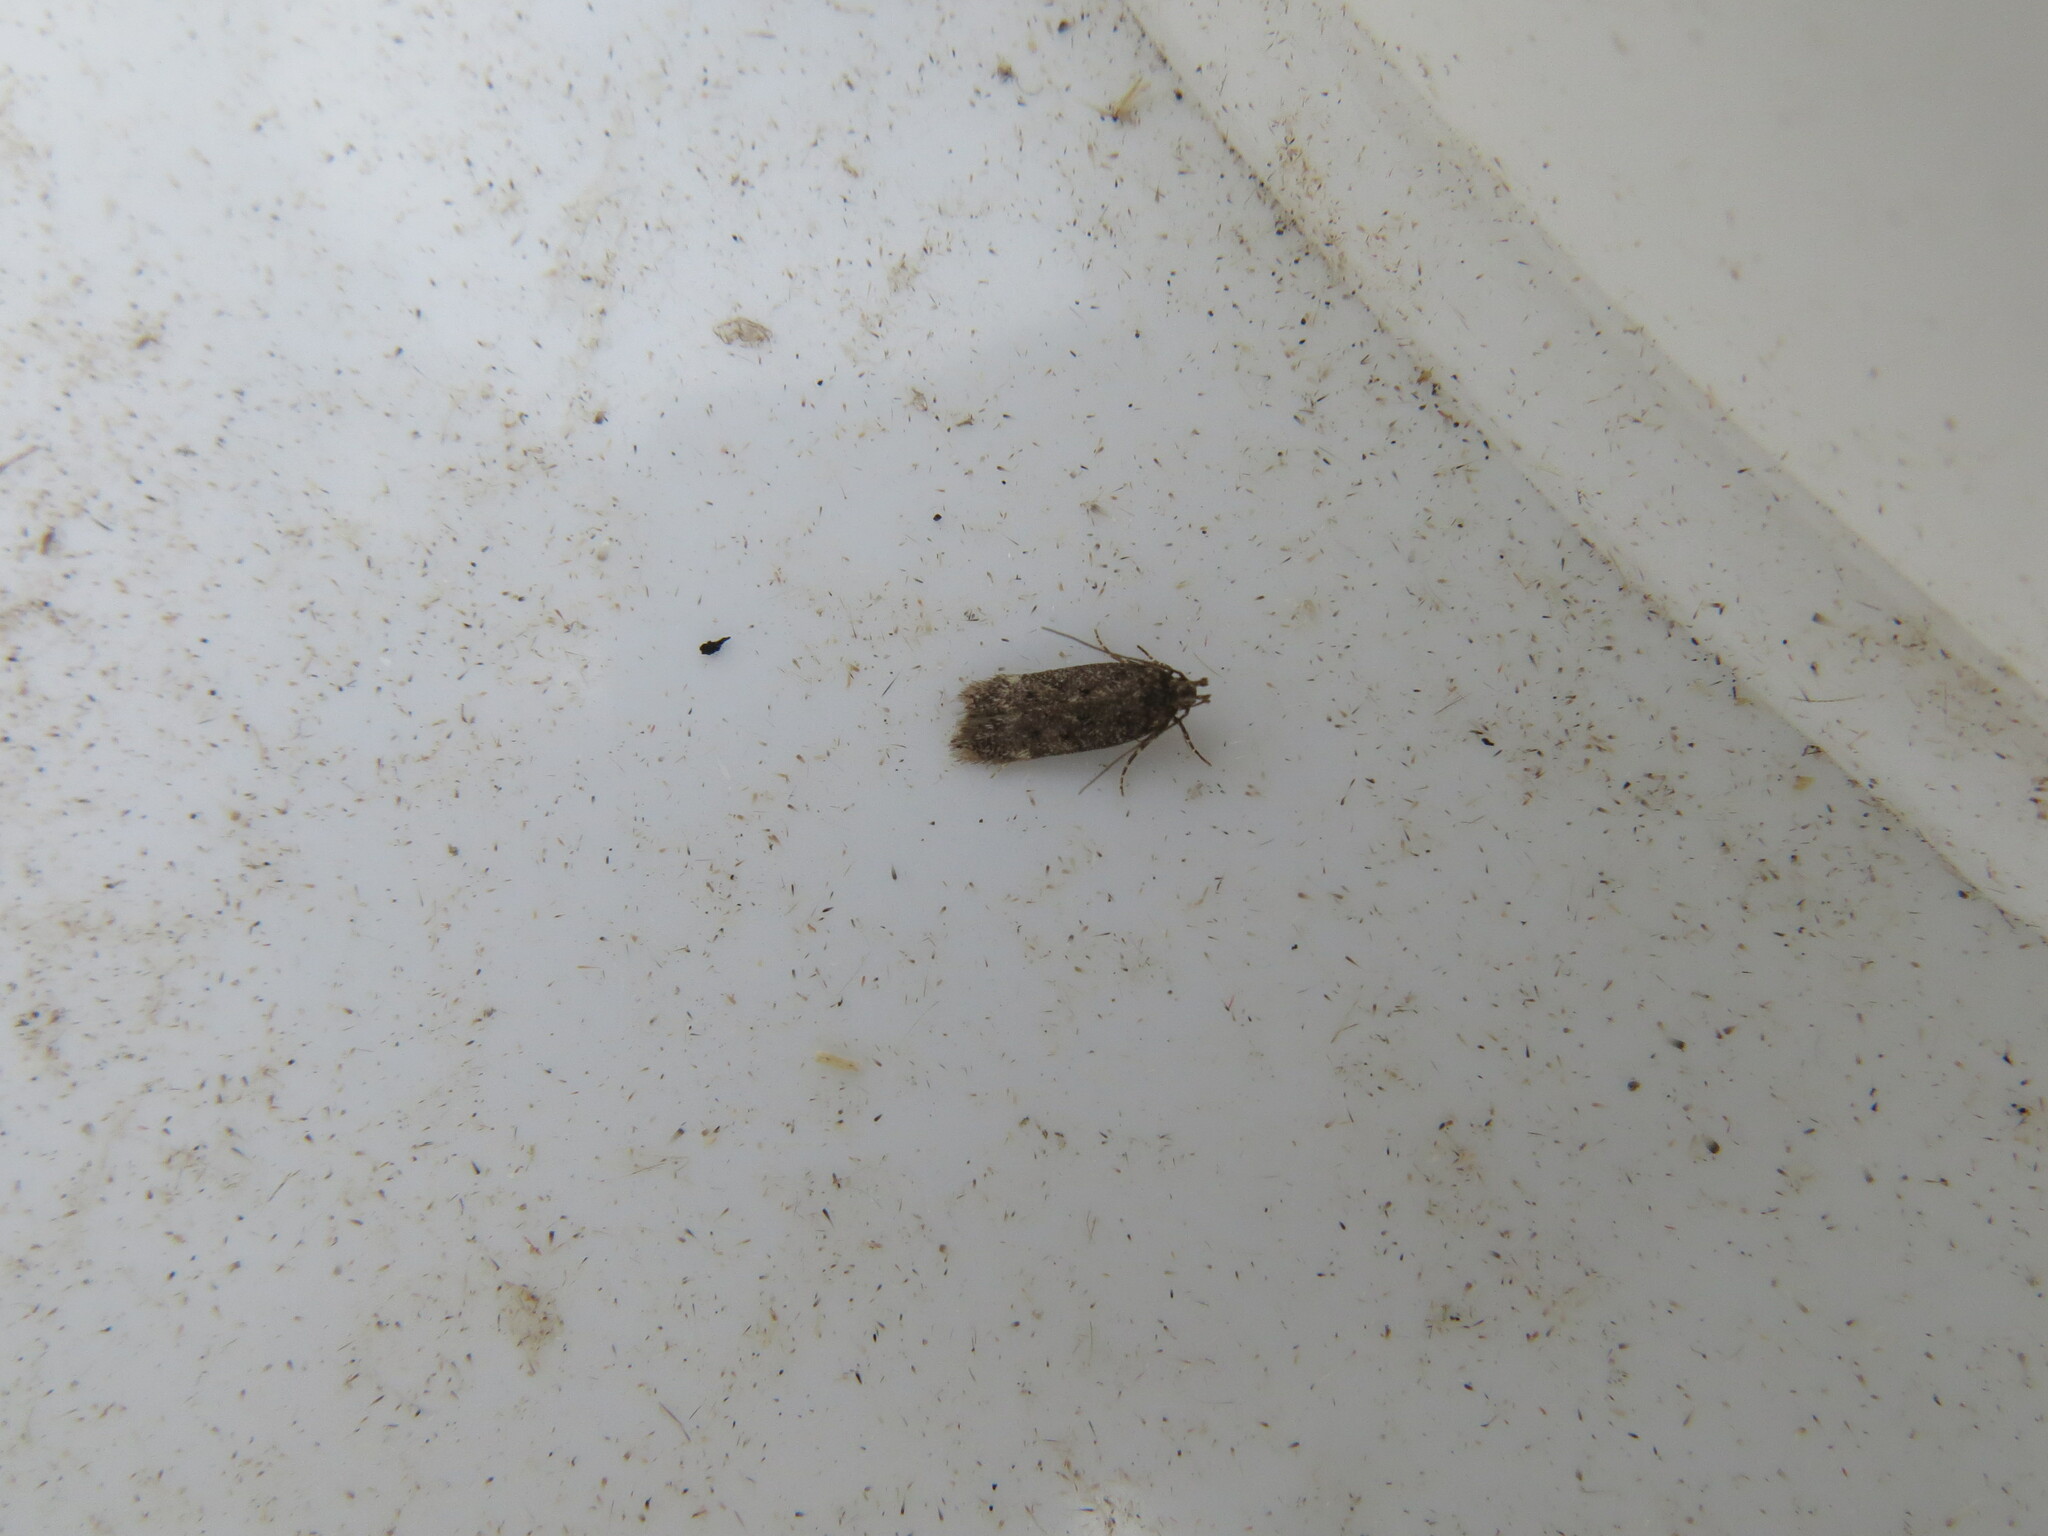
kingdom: Animalia
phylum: Arthropoda
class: Insecta
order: Lepidoptera
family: Gelechiidae
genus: Bryotropha
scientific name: Bryotropha affinis
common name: Dark groundling
